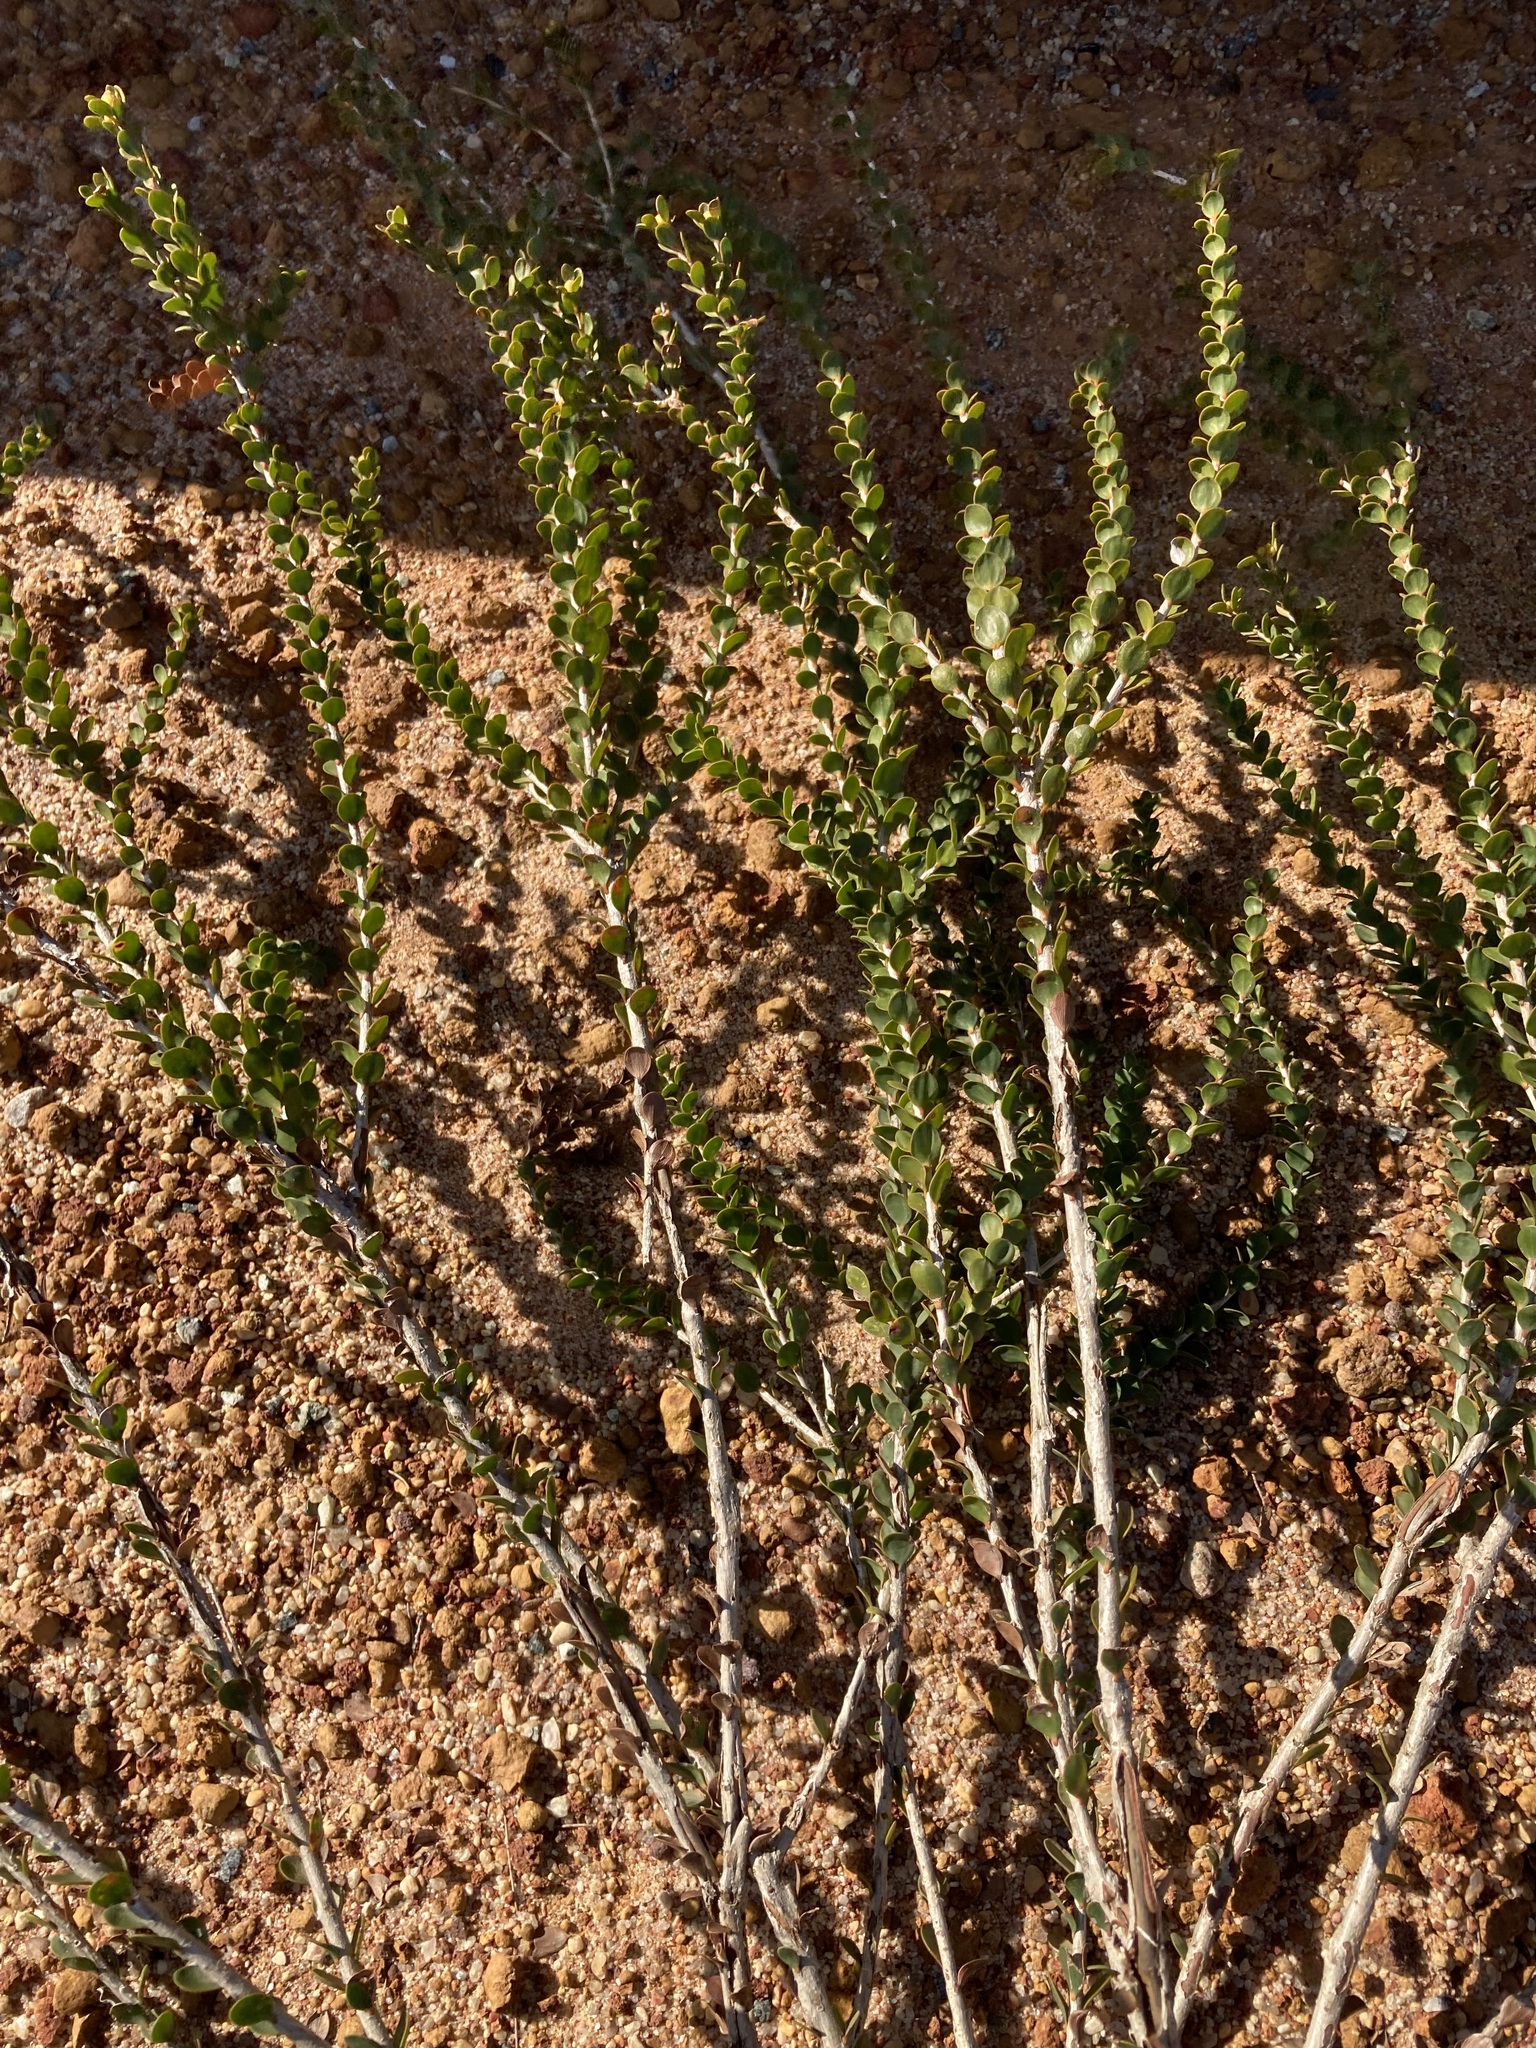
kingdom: Plantae
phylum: Tracheophyta
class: Magnoliopsida
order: Myrtales
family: Myrtaceae
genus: Melaleuca
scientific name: Melaleuca megacephala
